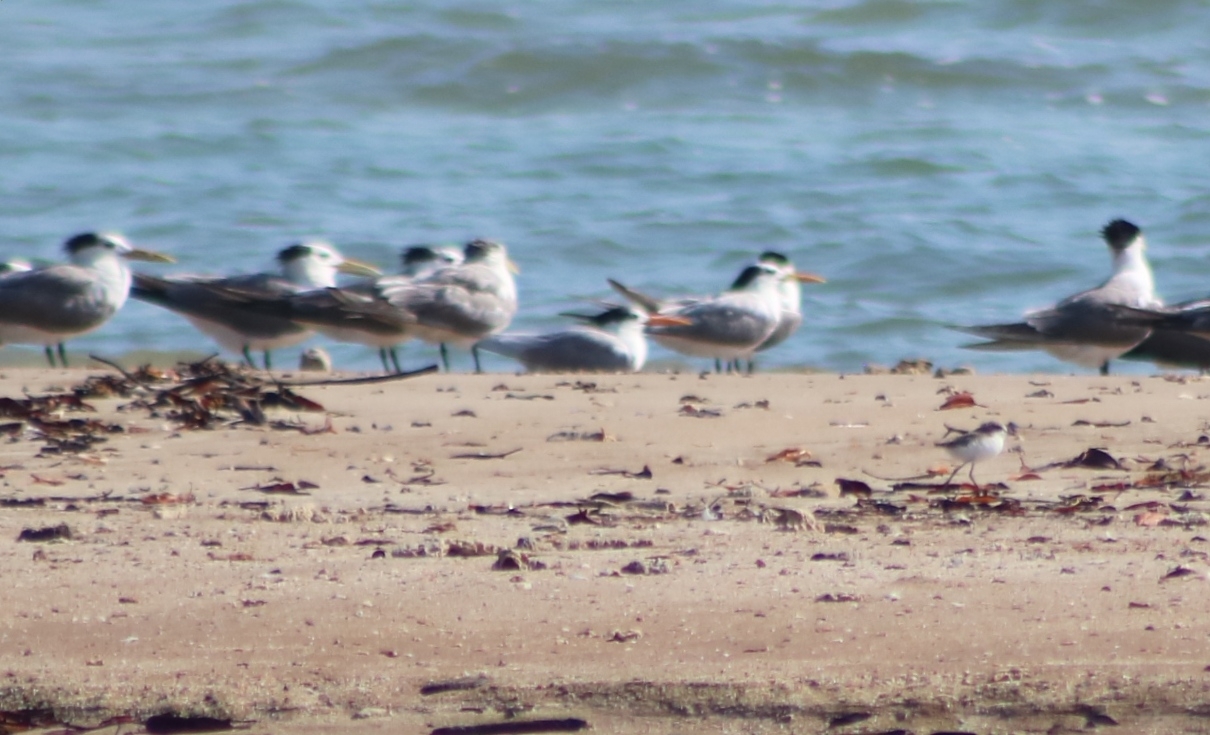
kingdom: Animalia
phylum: Chordata
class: Aves
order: Charadriiformes
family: Laridae
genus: Thalasseus
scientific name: Thalasseus bengalensis
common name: Lesser crested tern
